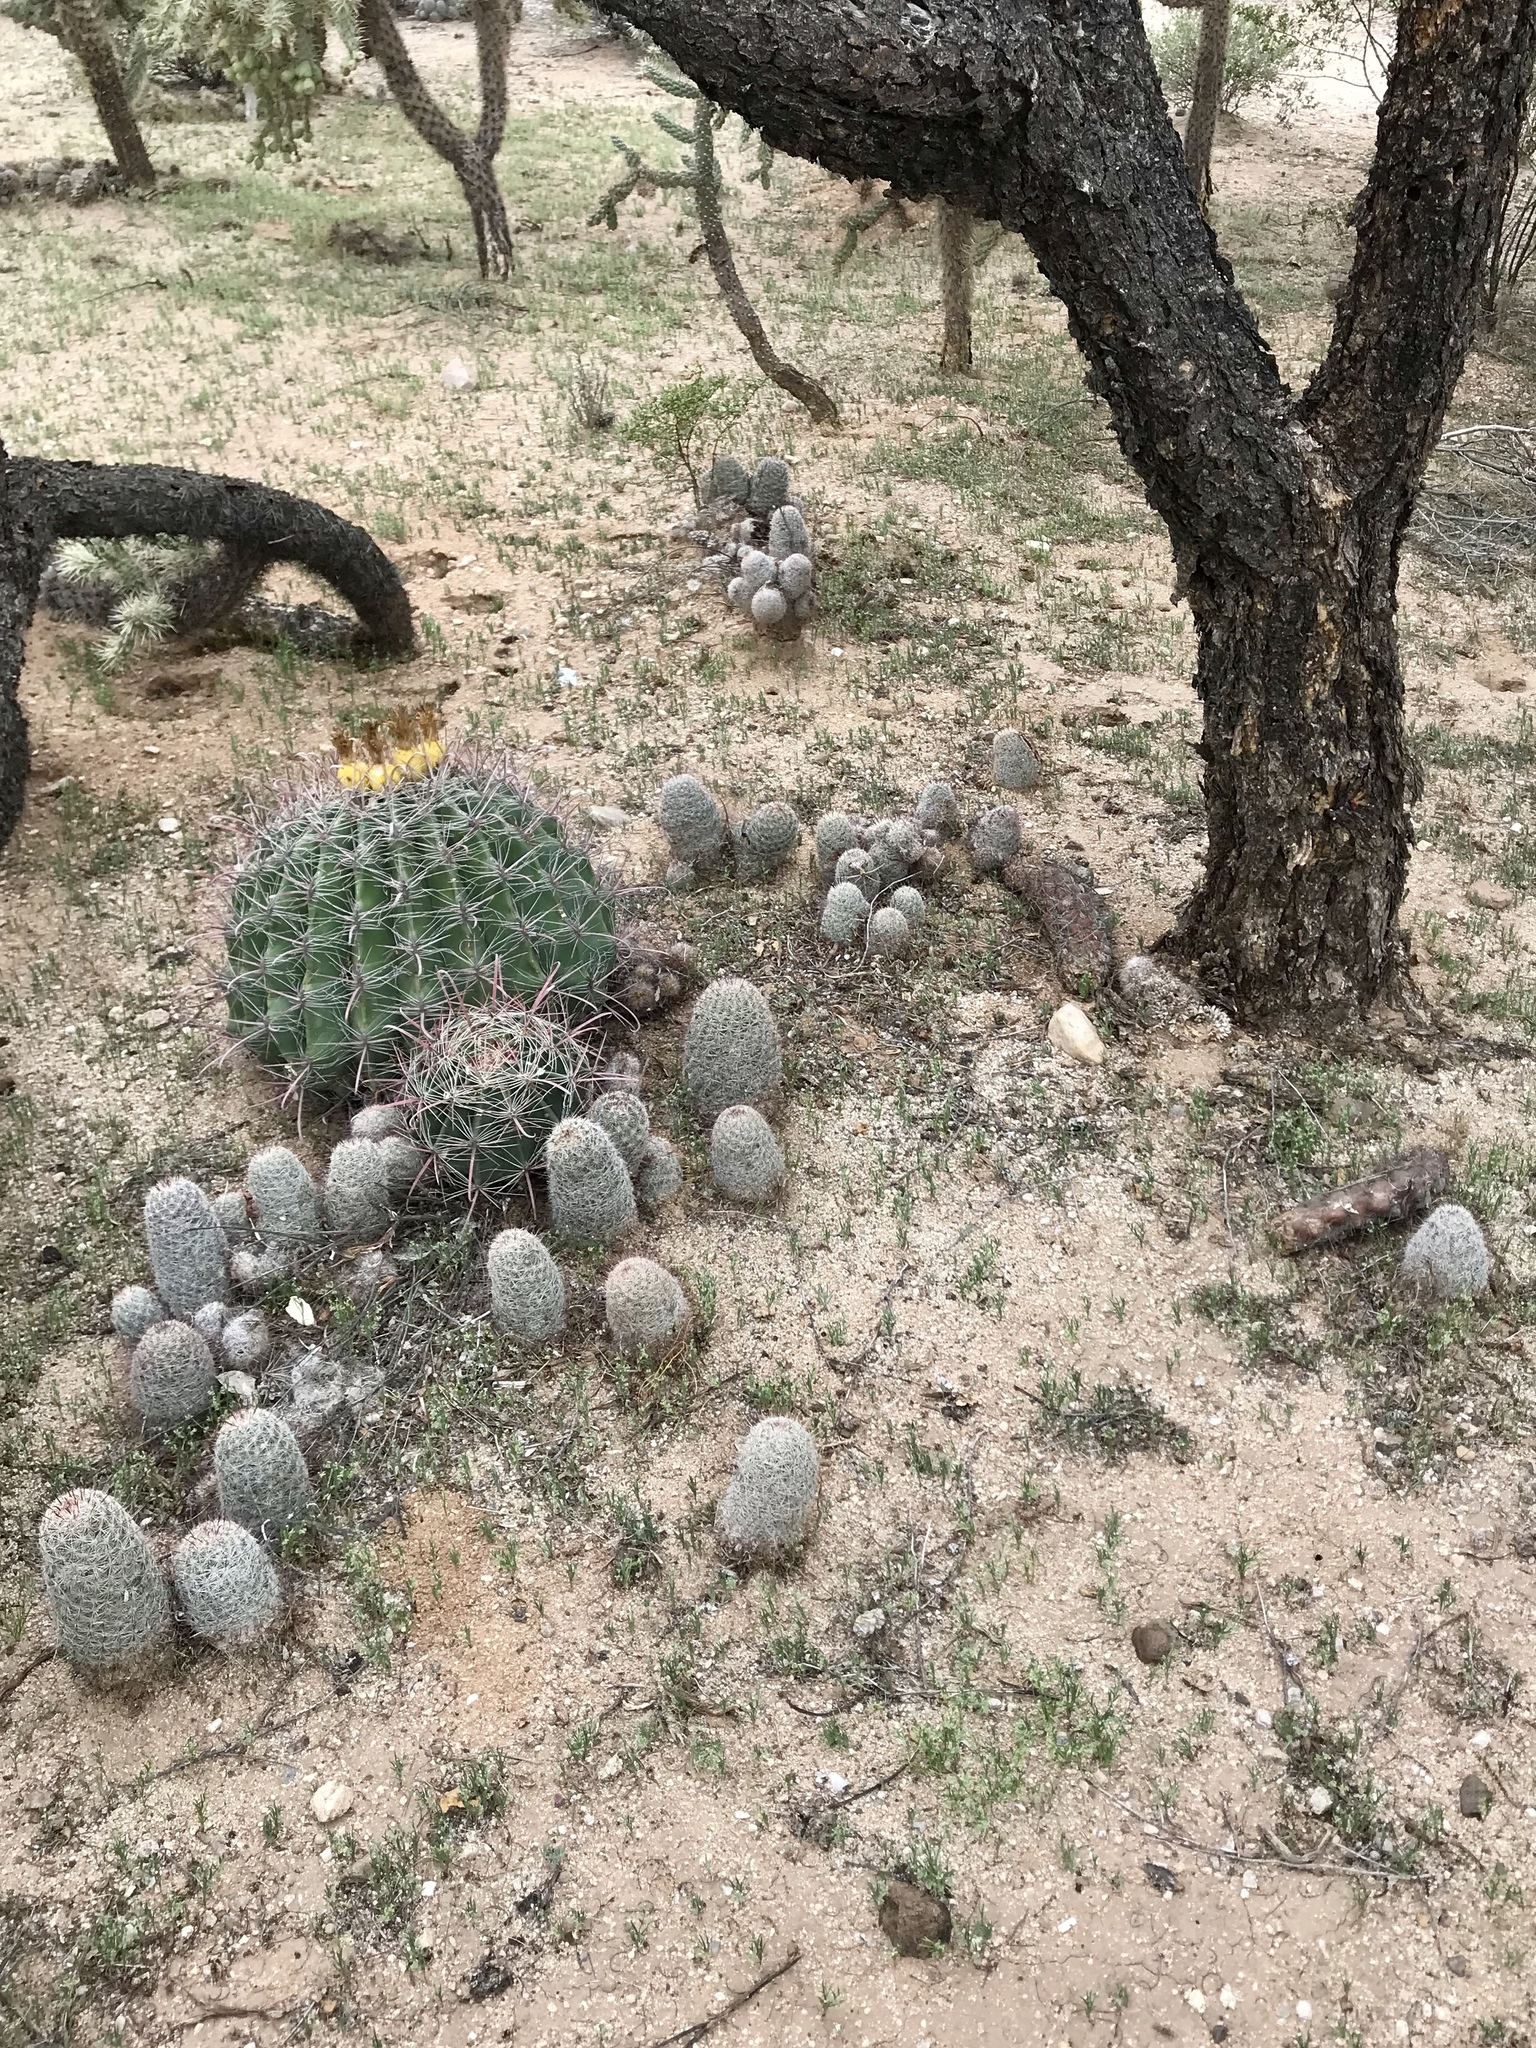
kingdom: Plantae
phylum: Tracheophyta
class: Magnoliopsida
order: Caryophyllales
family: Cactaceae
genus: Cochemiea
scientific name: Cochemiea grahamii
